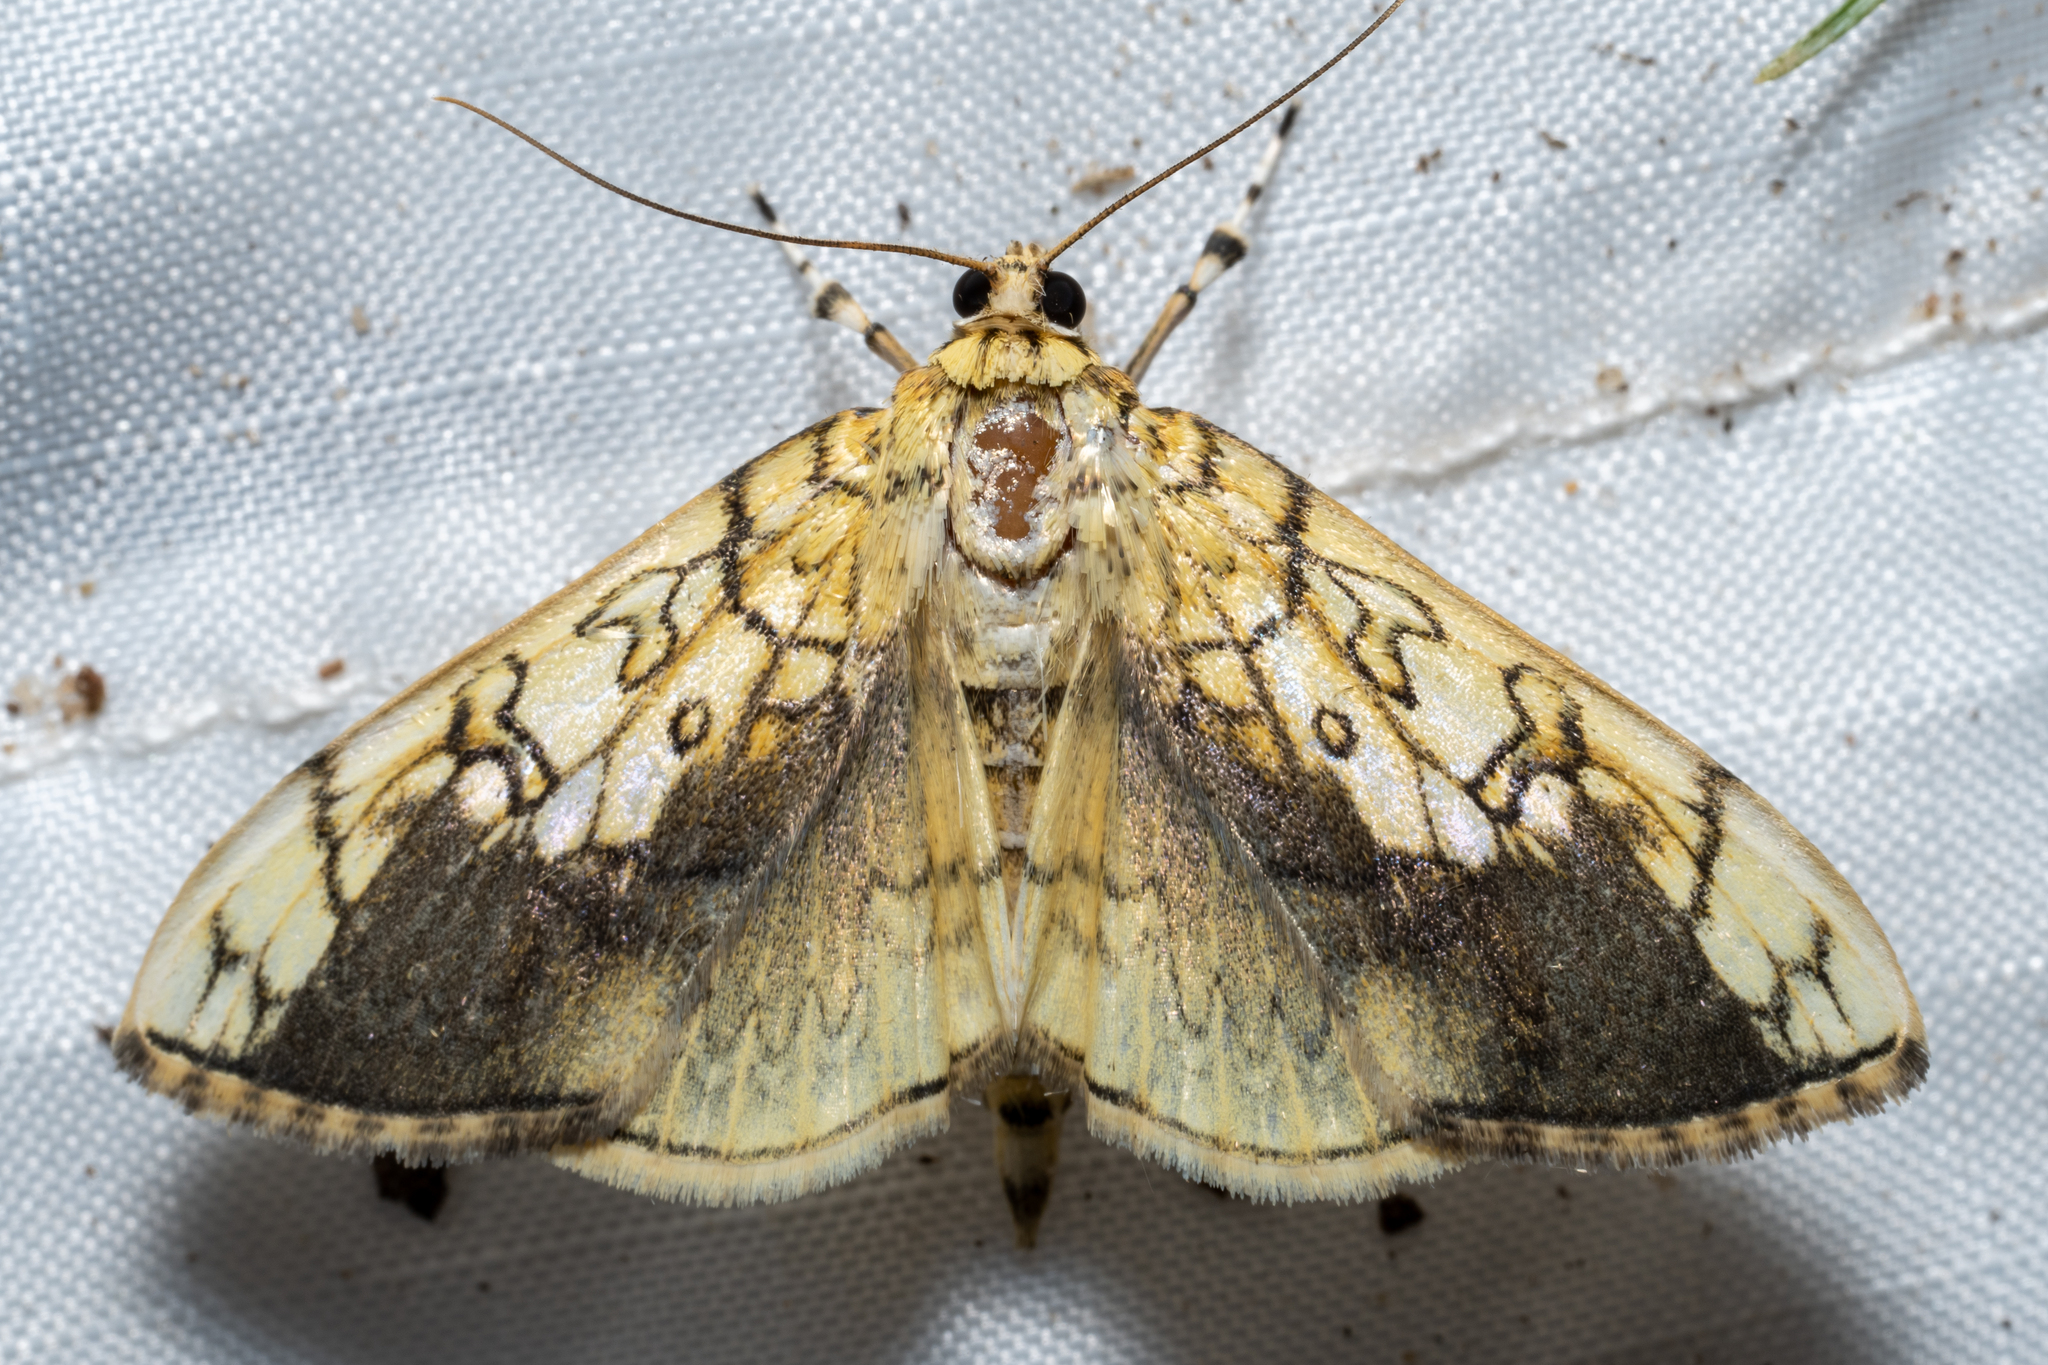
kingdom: Animalia
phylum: Arthropoda
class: Insecta
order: Lepidoptera
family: Crambidae
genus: Pantographa
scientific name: Pantographa limata
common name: Basswood leafroller moth
